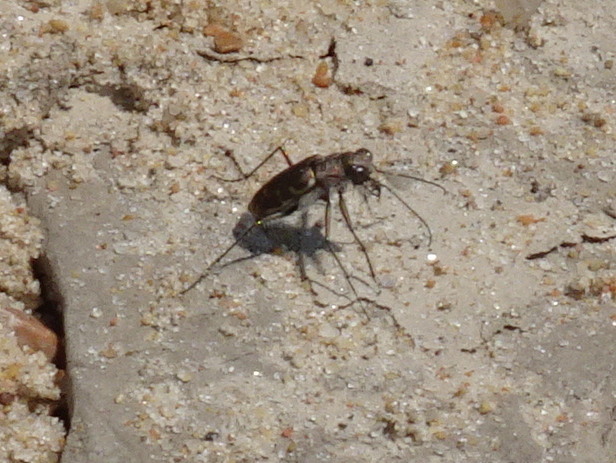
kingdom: Animalia
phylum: Arthropoda
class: Insecta
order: Coleoptera
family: Carabidae
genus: Cicindela
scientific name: Cicindela repanda
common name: Bronzed tiger beetle
